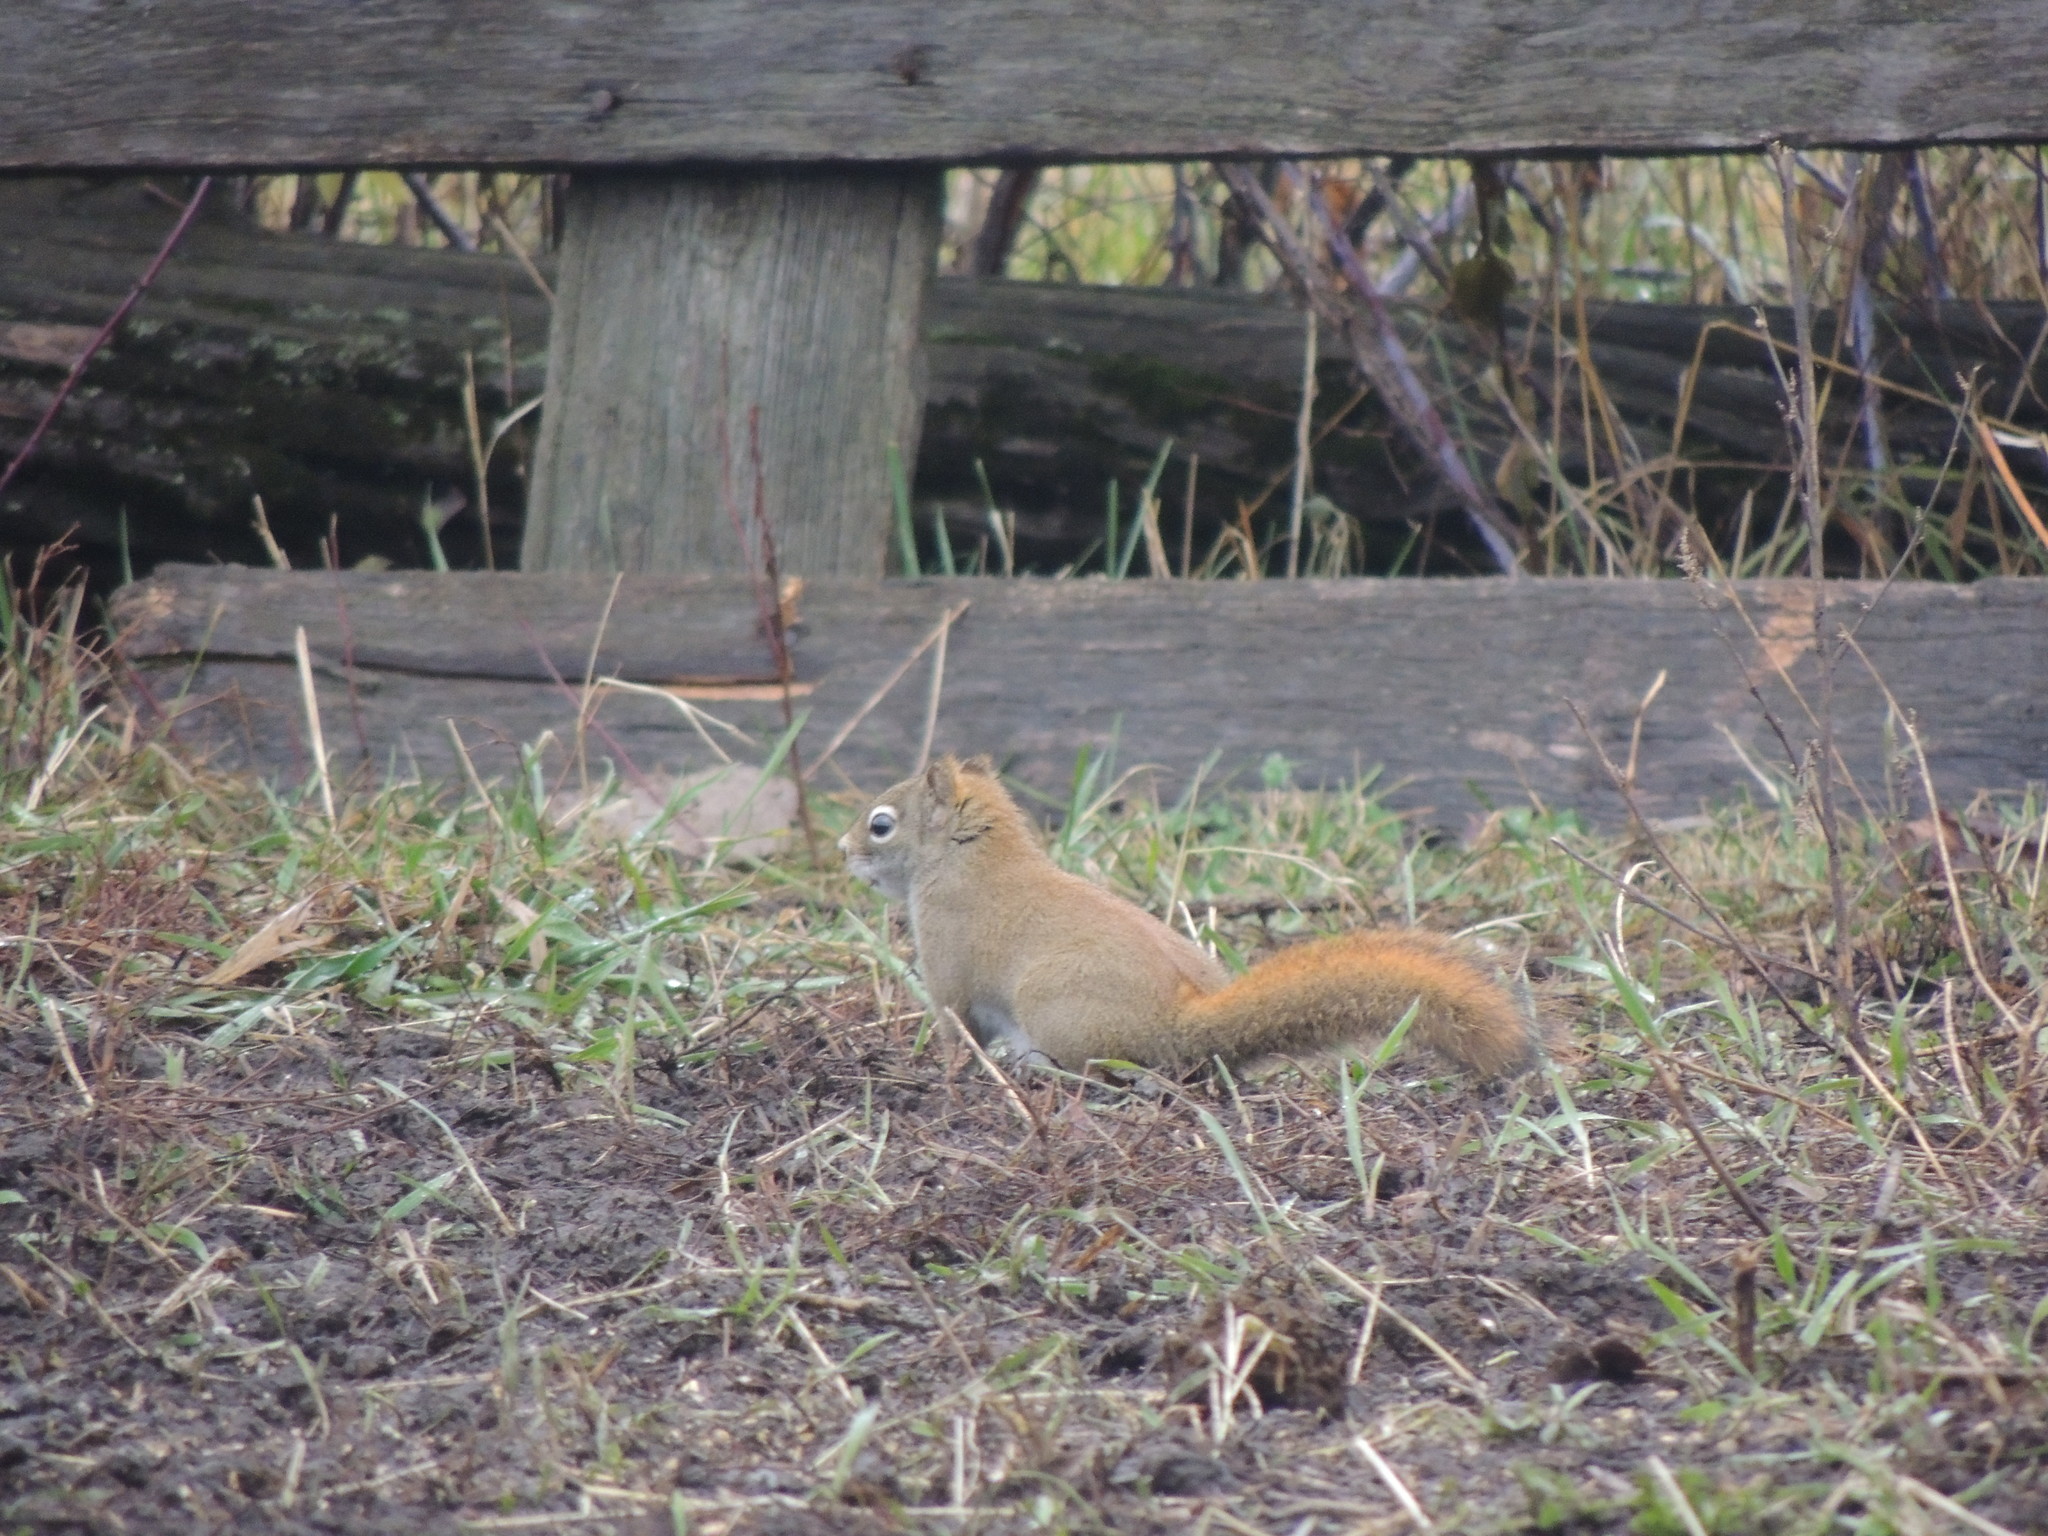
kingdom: Animalia
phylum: Chordata
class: Mammalia
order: Rodentia
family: Sciuridae
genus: Tamiasciurus
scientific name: Tamiasciurus hudsonicus
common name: Red squirrel
